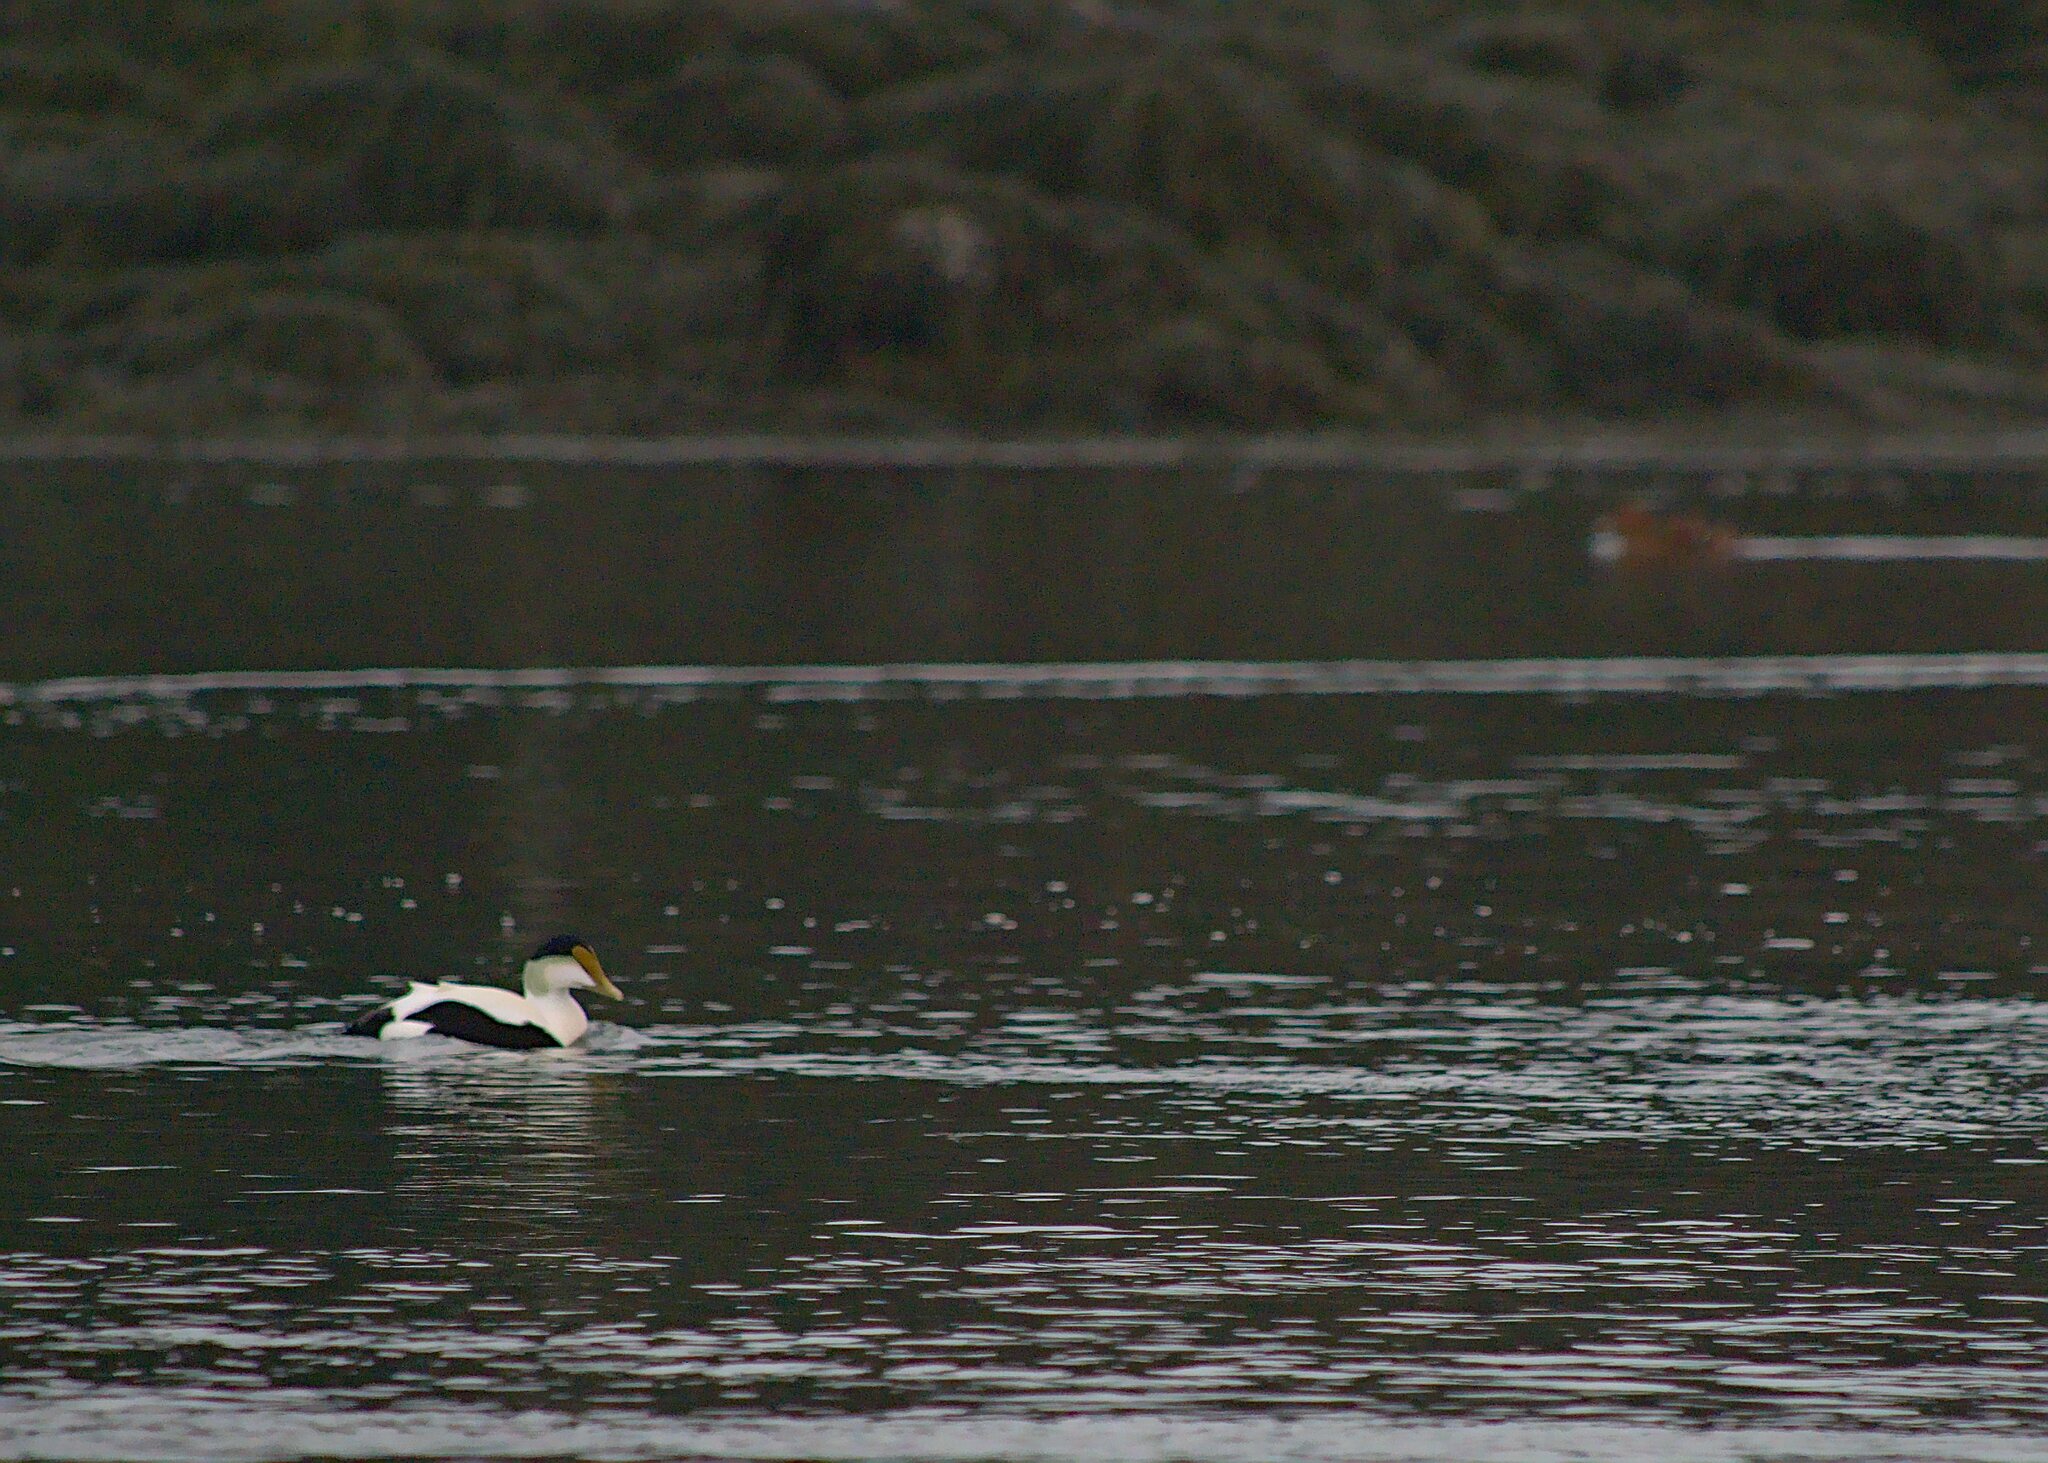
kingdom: Animalia
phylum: Chordata
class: Aves
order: Anseriformes
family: Anatidae
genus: Somateria
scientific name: Somateria mollissima
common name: Common eider
